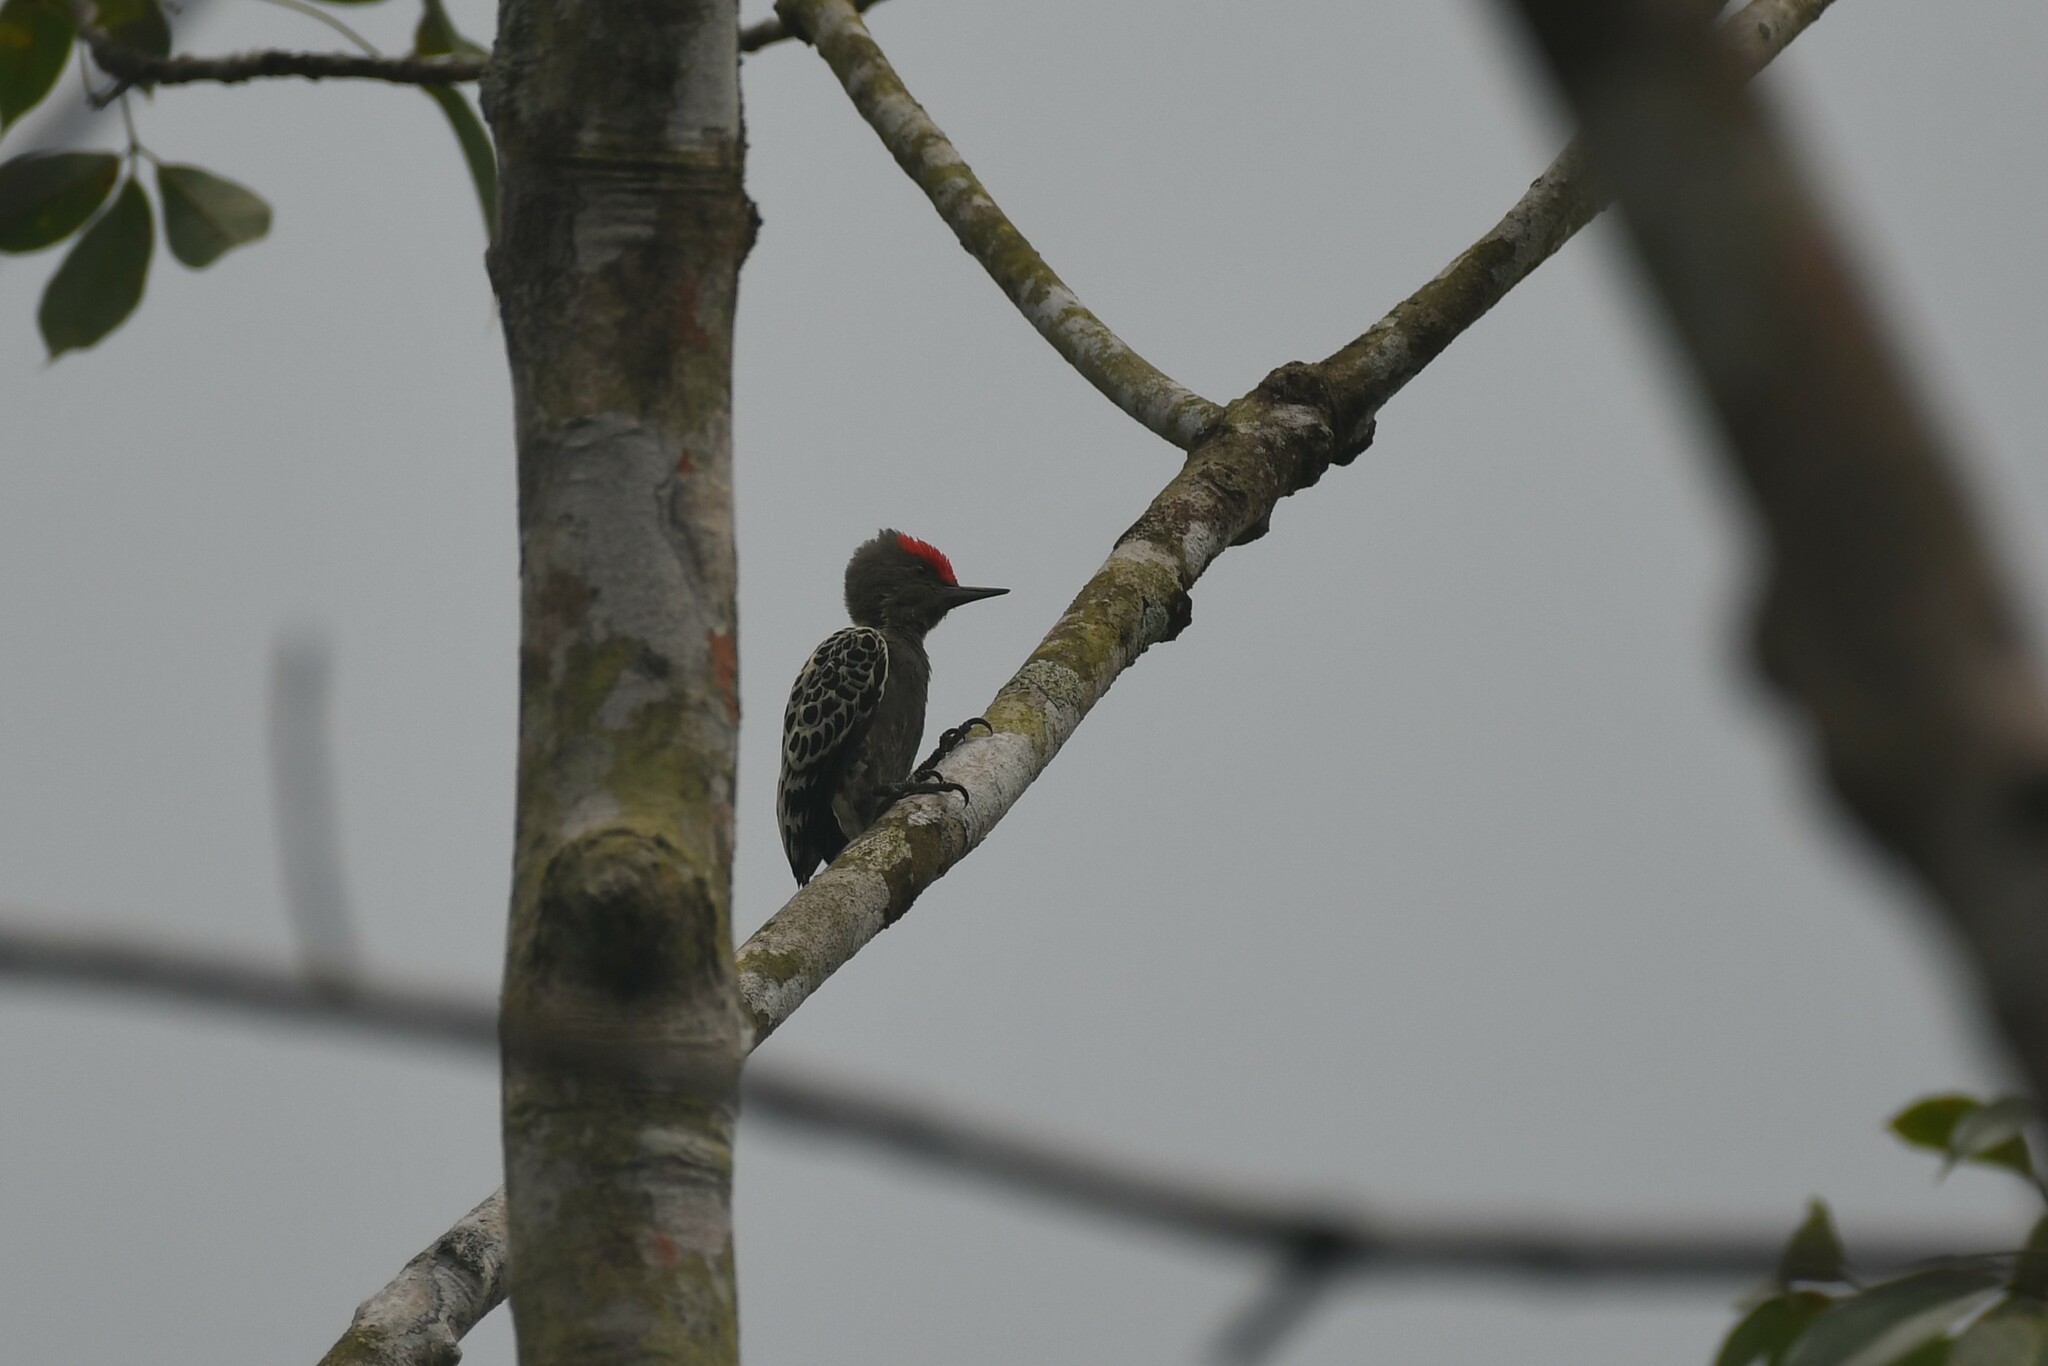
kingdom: Animalia
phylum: Chordata
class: Aves
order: Piciformes
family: Picidae
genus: Hemicircus
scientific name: Hemicircus concretus
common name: Grey-and-buff woodpecker
